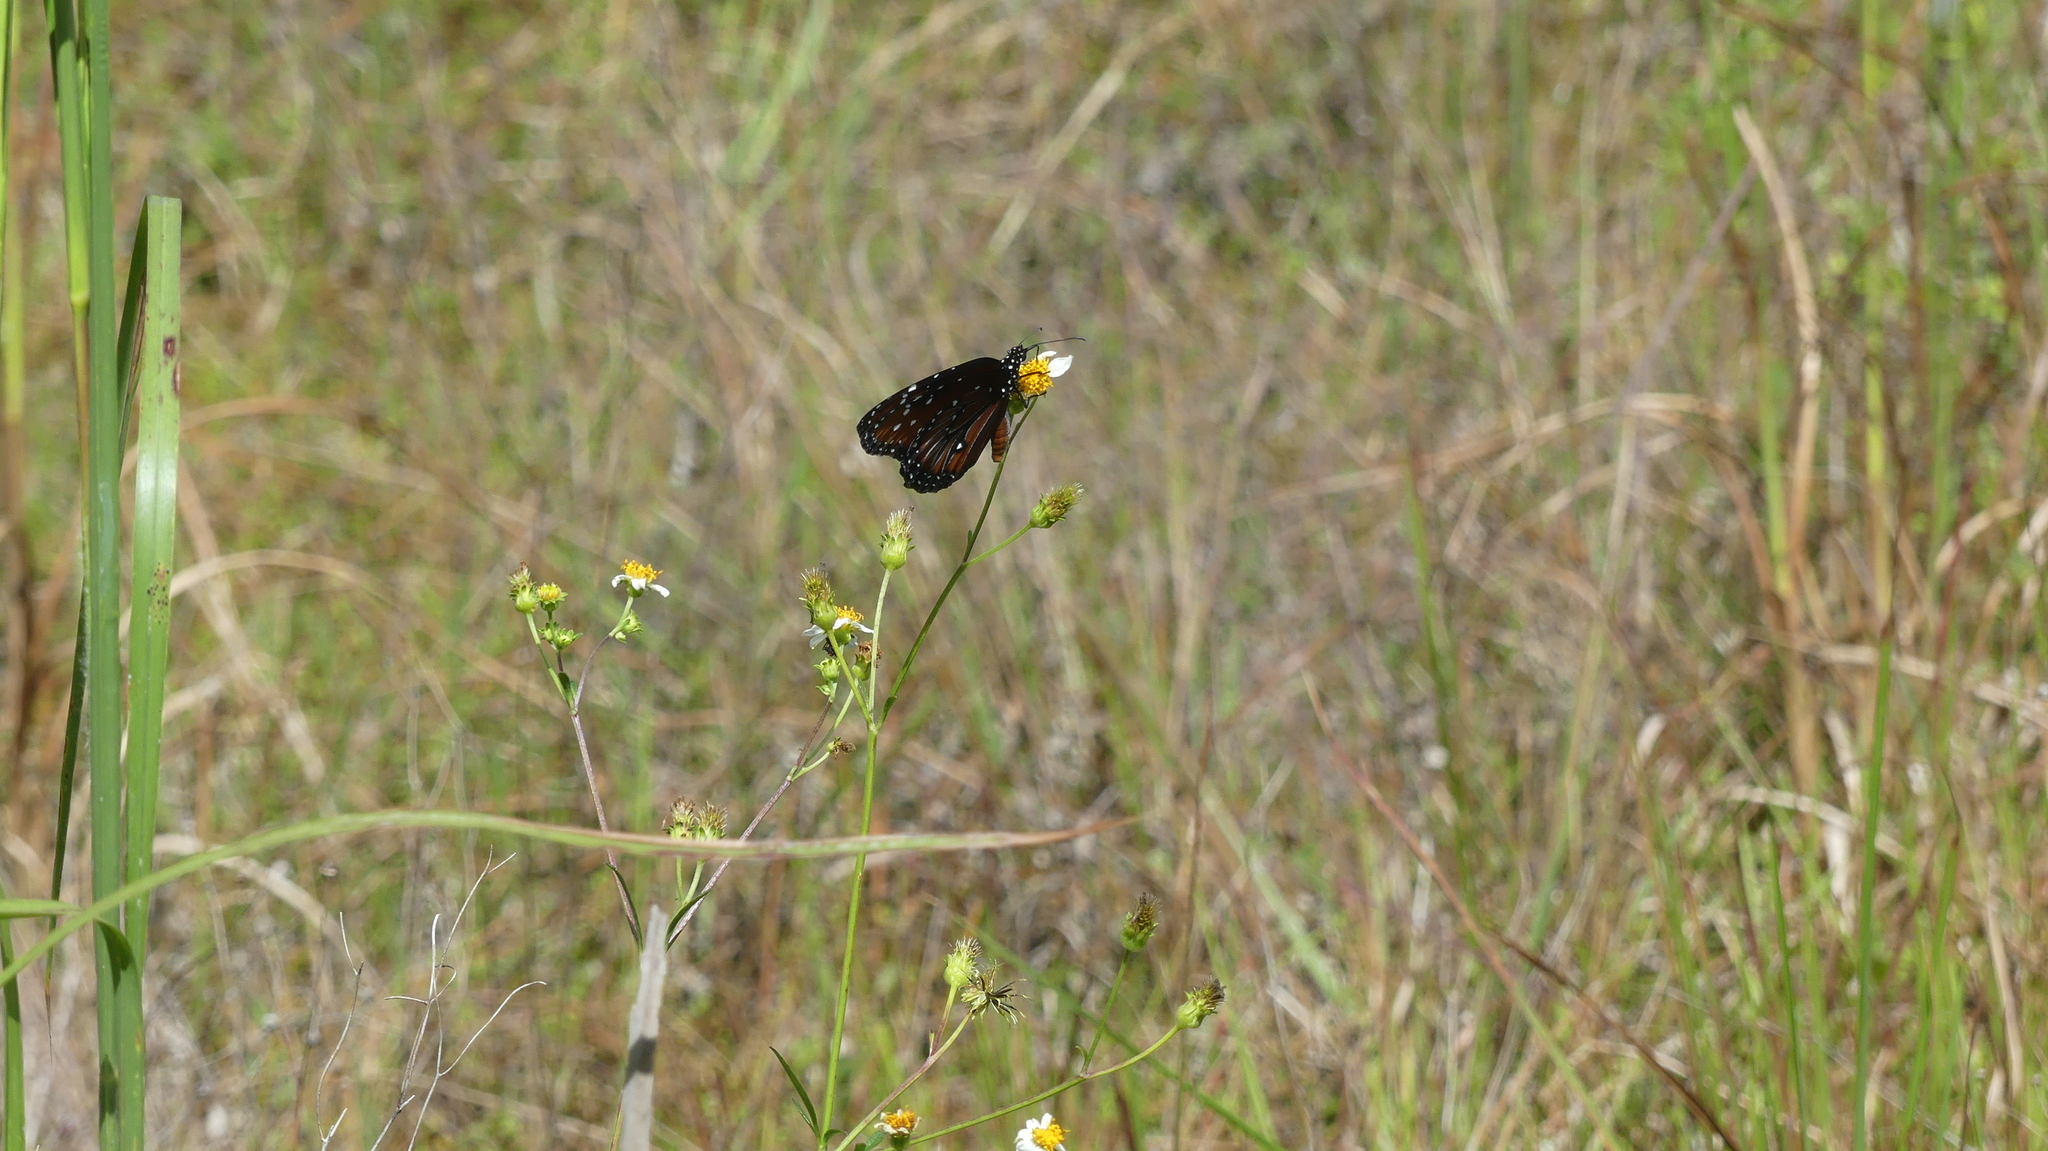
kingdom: Animalia
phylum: Arthropoda
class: Insecta
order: Lepidoptera
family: Nymphalidae
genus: Danaus
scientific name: Danaus gilippus
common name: Queen
